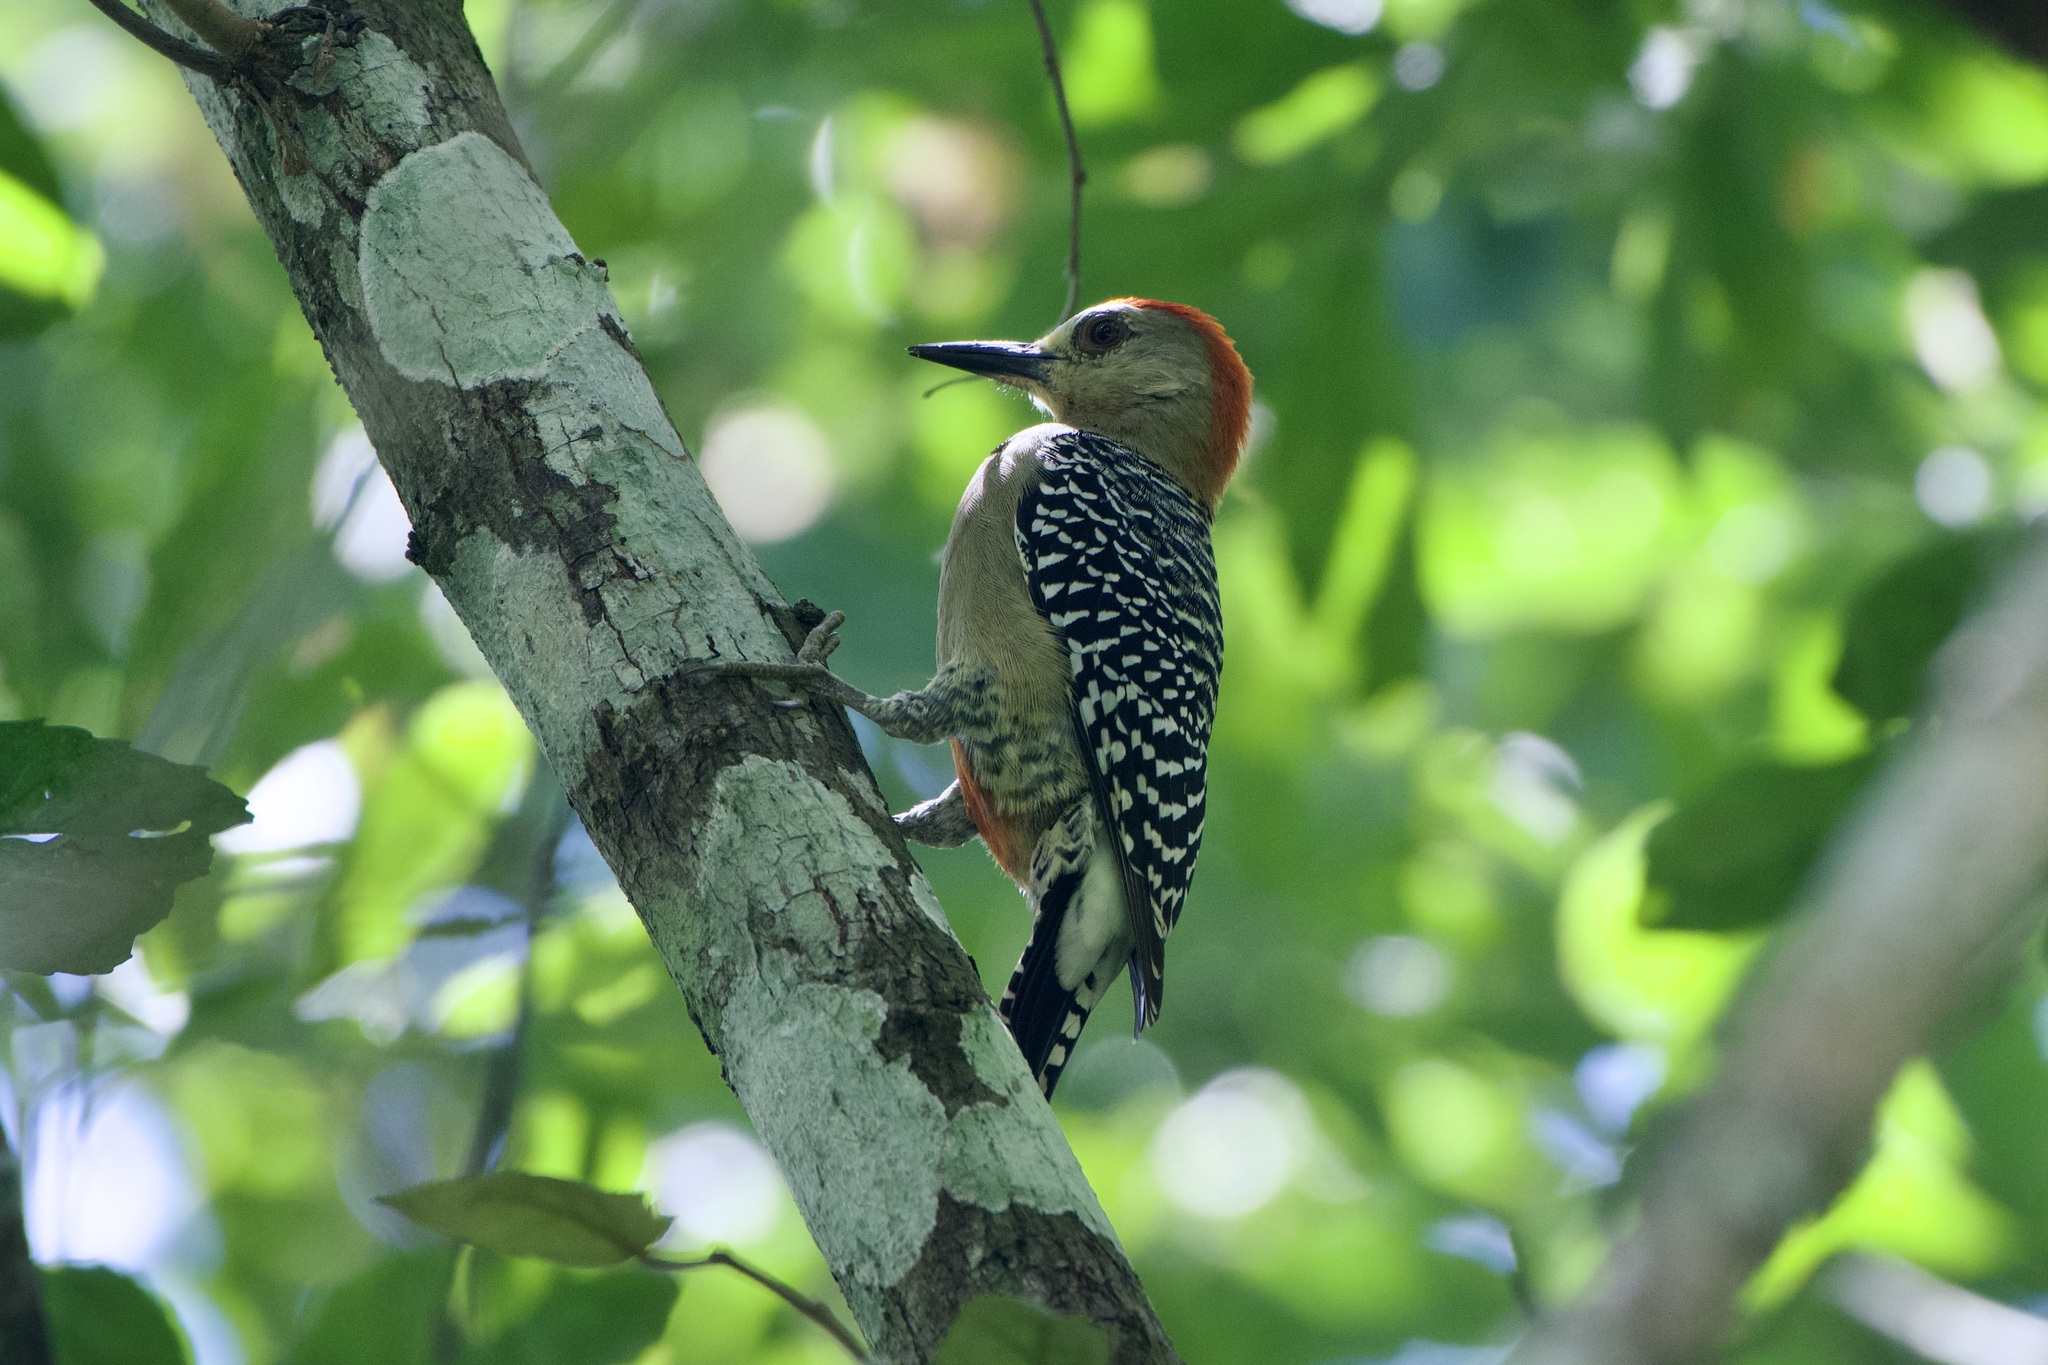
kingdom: Animalia
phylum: Chordata
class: Aves
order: Piciformes
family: Picidae
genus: Melanerpes
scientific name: Melanerpes rubricapillus
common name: Red-crowned woodpecker
